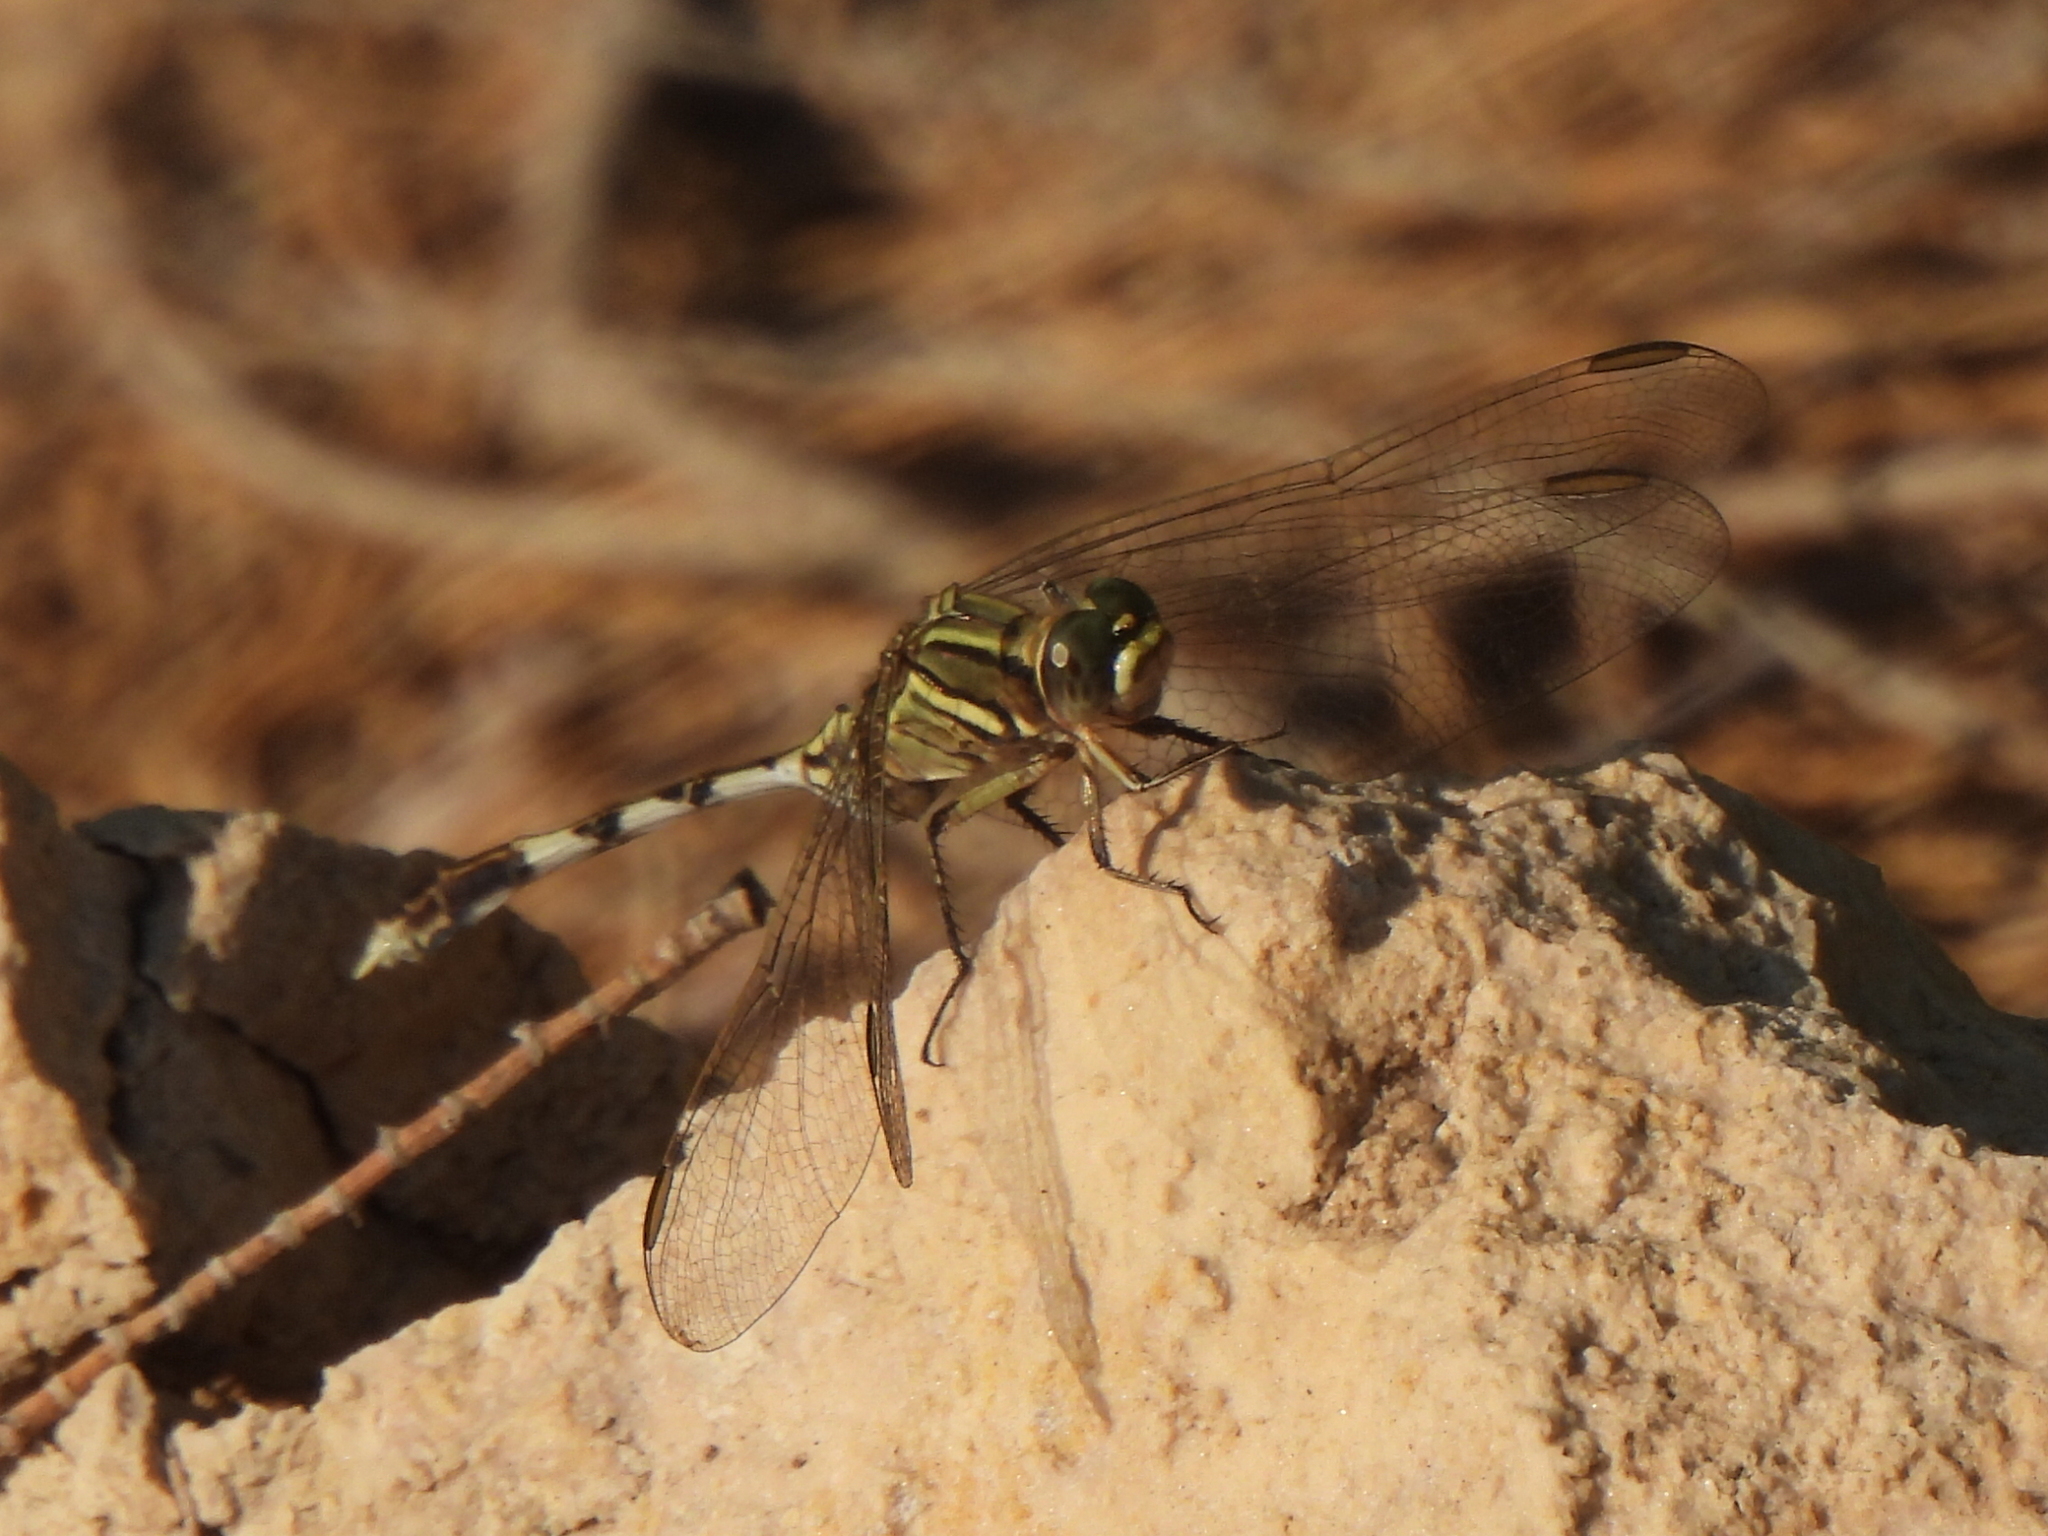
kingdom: Animalia
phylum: Arthropoda
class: Insecta
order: Odonata
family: Libellulidae
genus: Orthetrum
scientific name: Orthetrum sabina
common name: Slender skimmer
